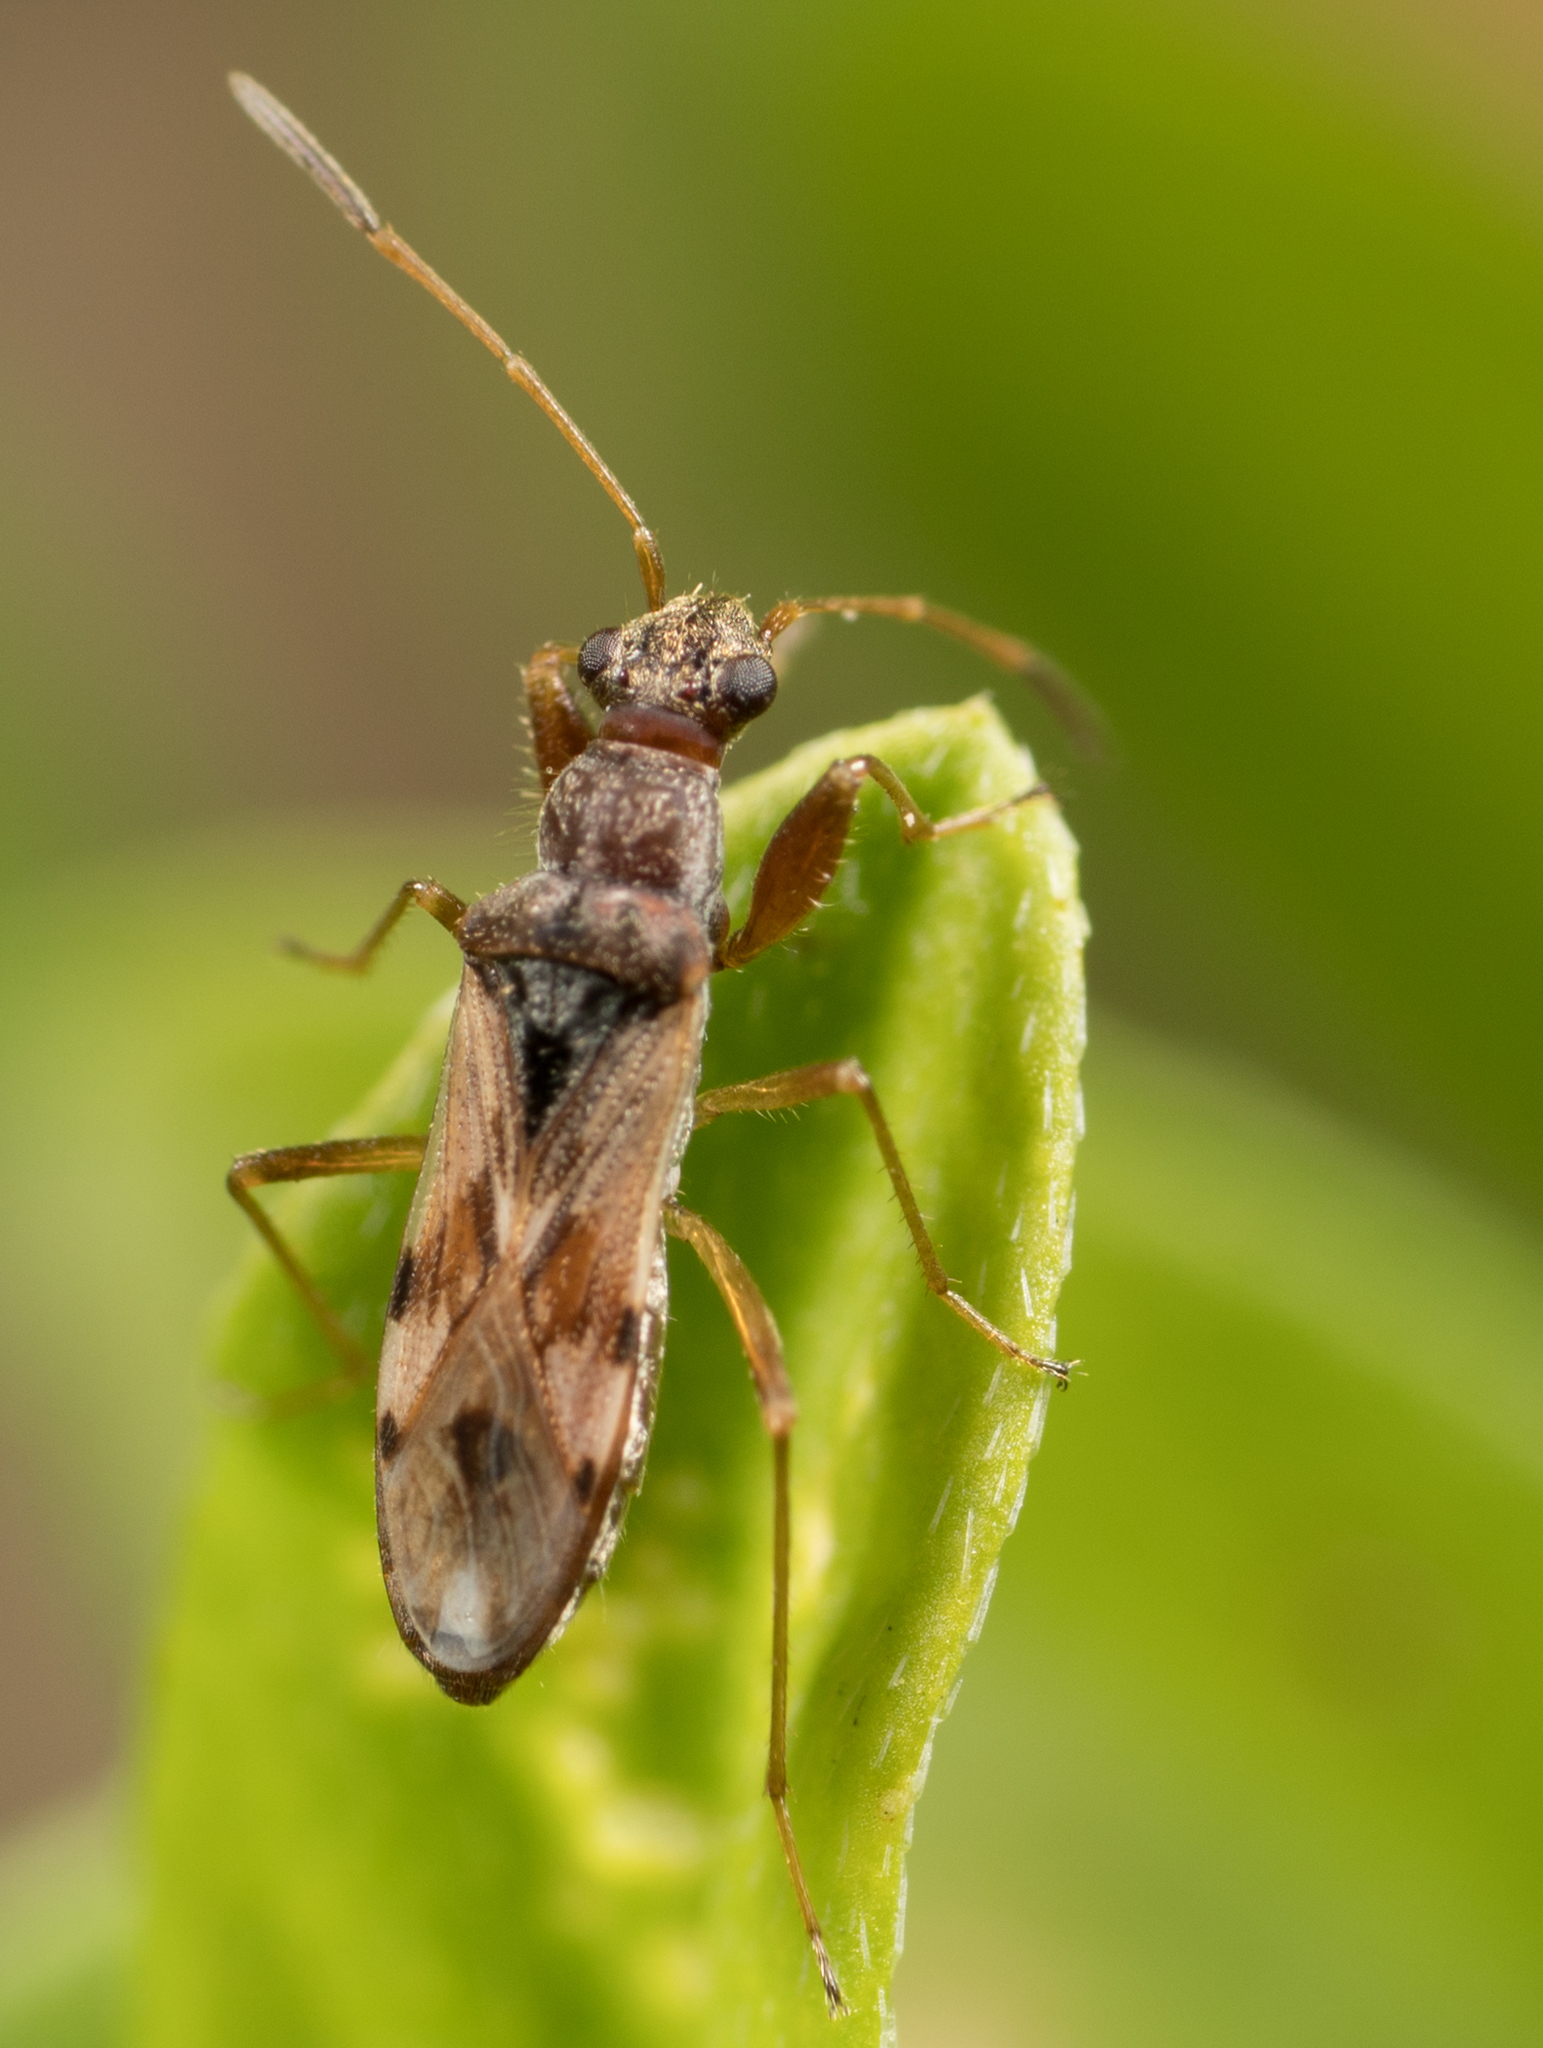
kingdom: Animalia
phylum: Arthropoda
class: Insecta
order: Hemiptera
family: Rhyparochromidae
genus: Neopamera
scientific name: Neopamera bilobata
